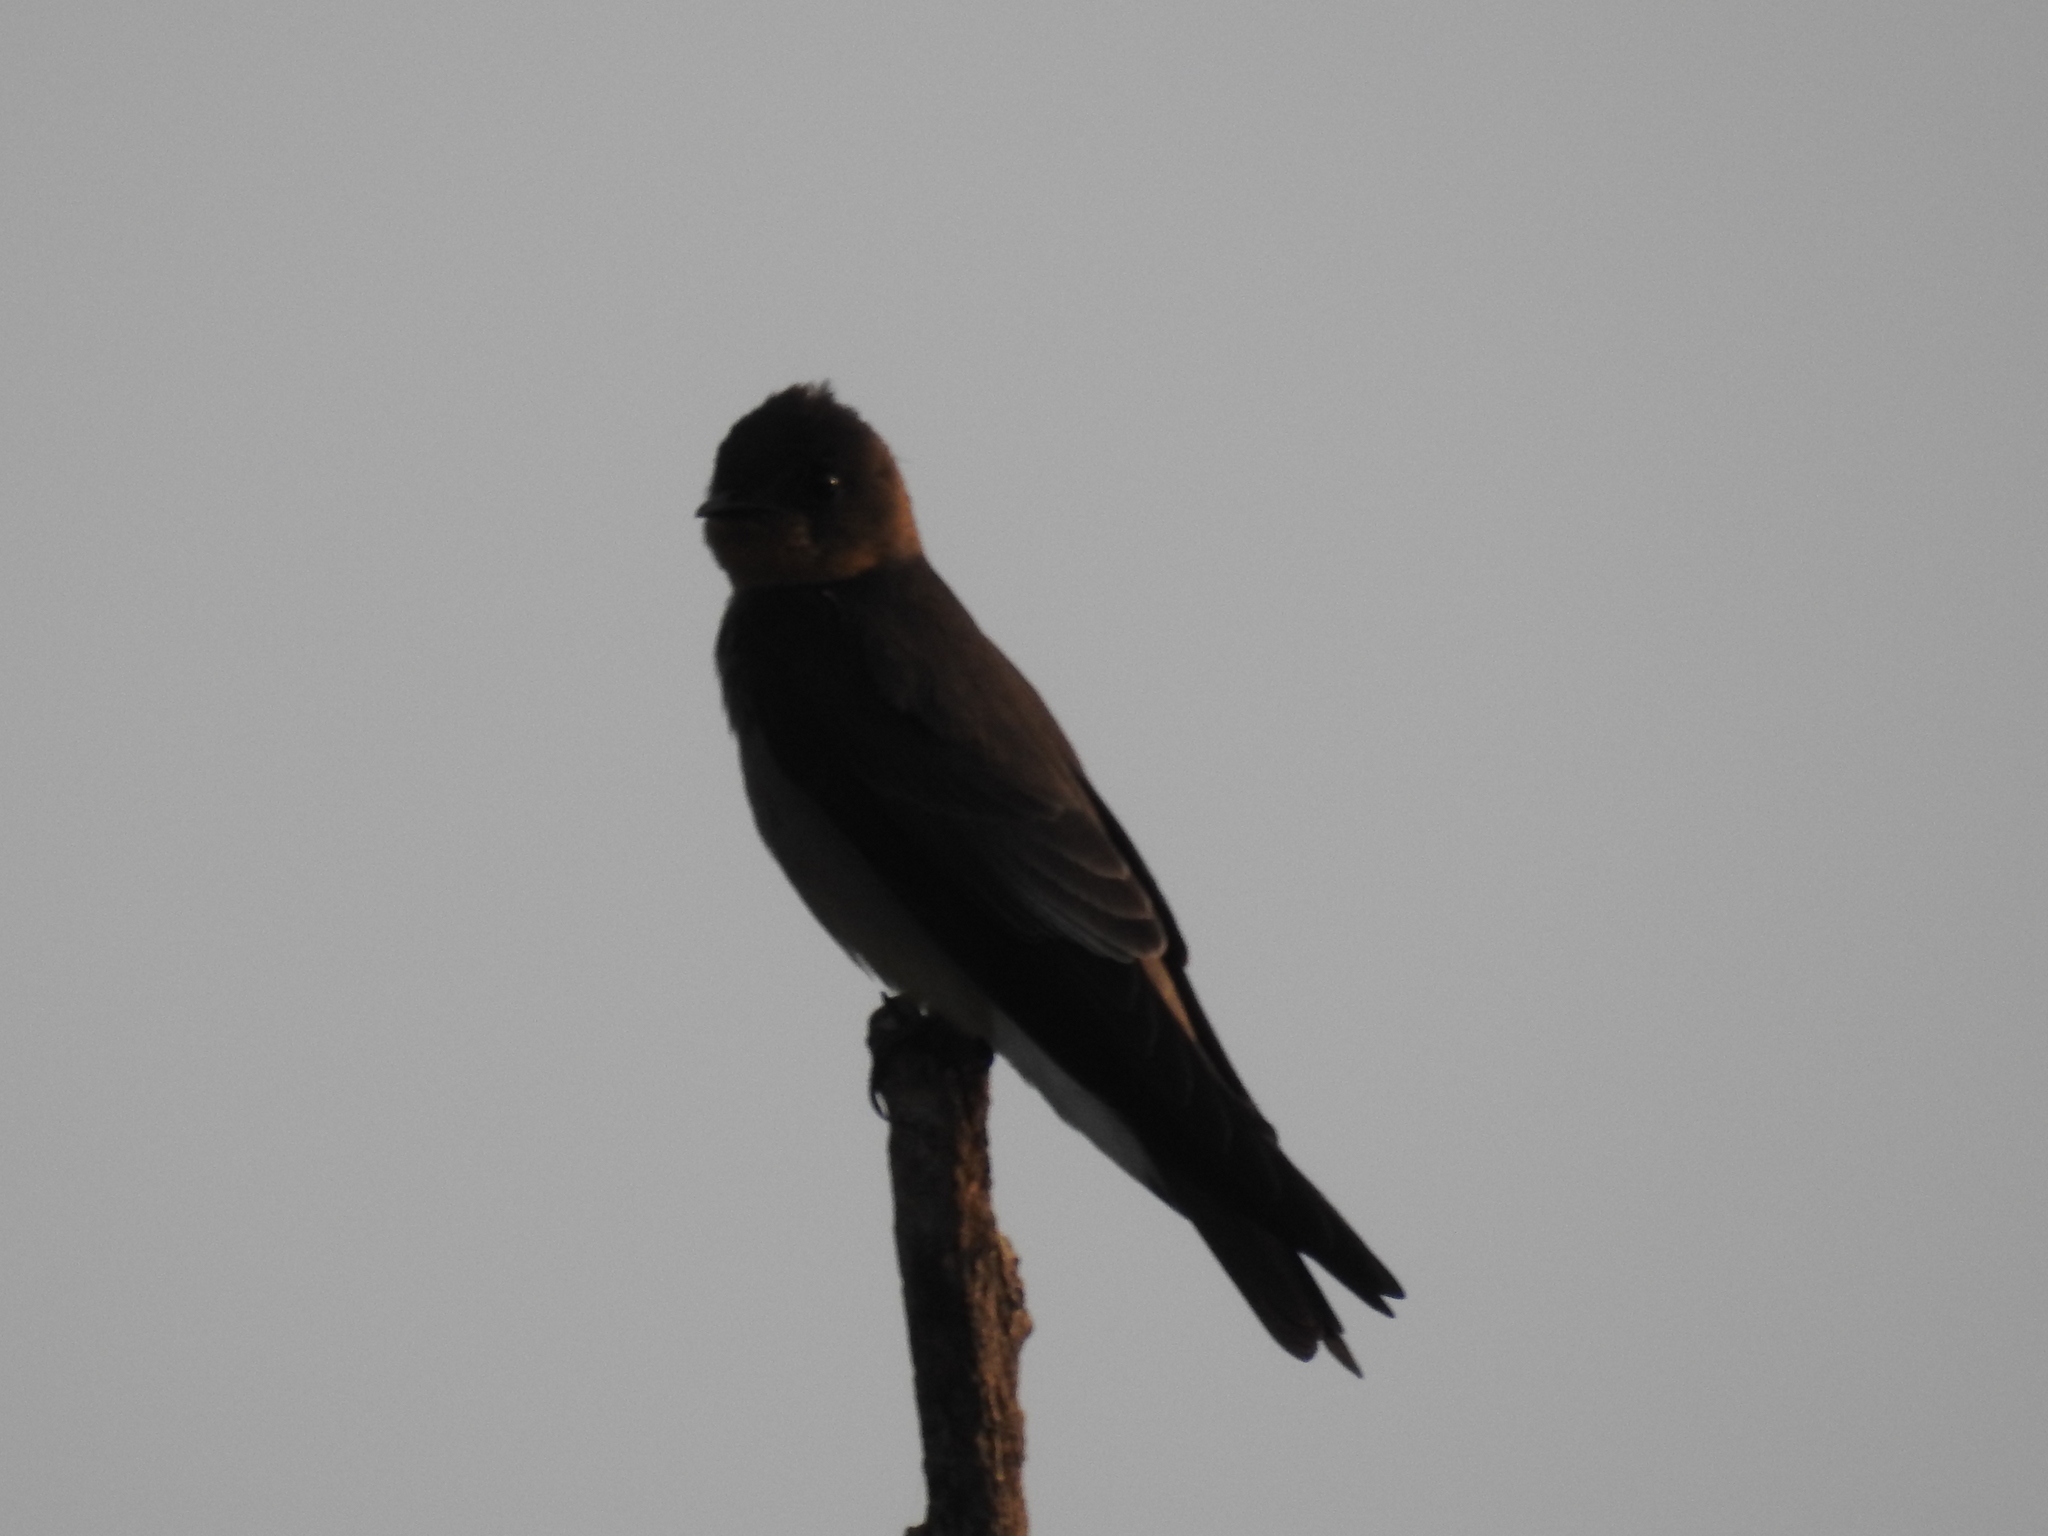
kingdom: Animalia
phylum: Chordata
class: Aves
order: Passeriformes
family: Hirundinidae
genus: Stelgidopteryx
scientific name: Stelgidopteryx ruficollis
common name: Southern rough-winged swallow
